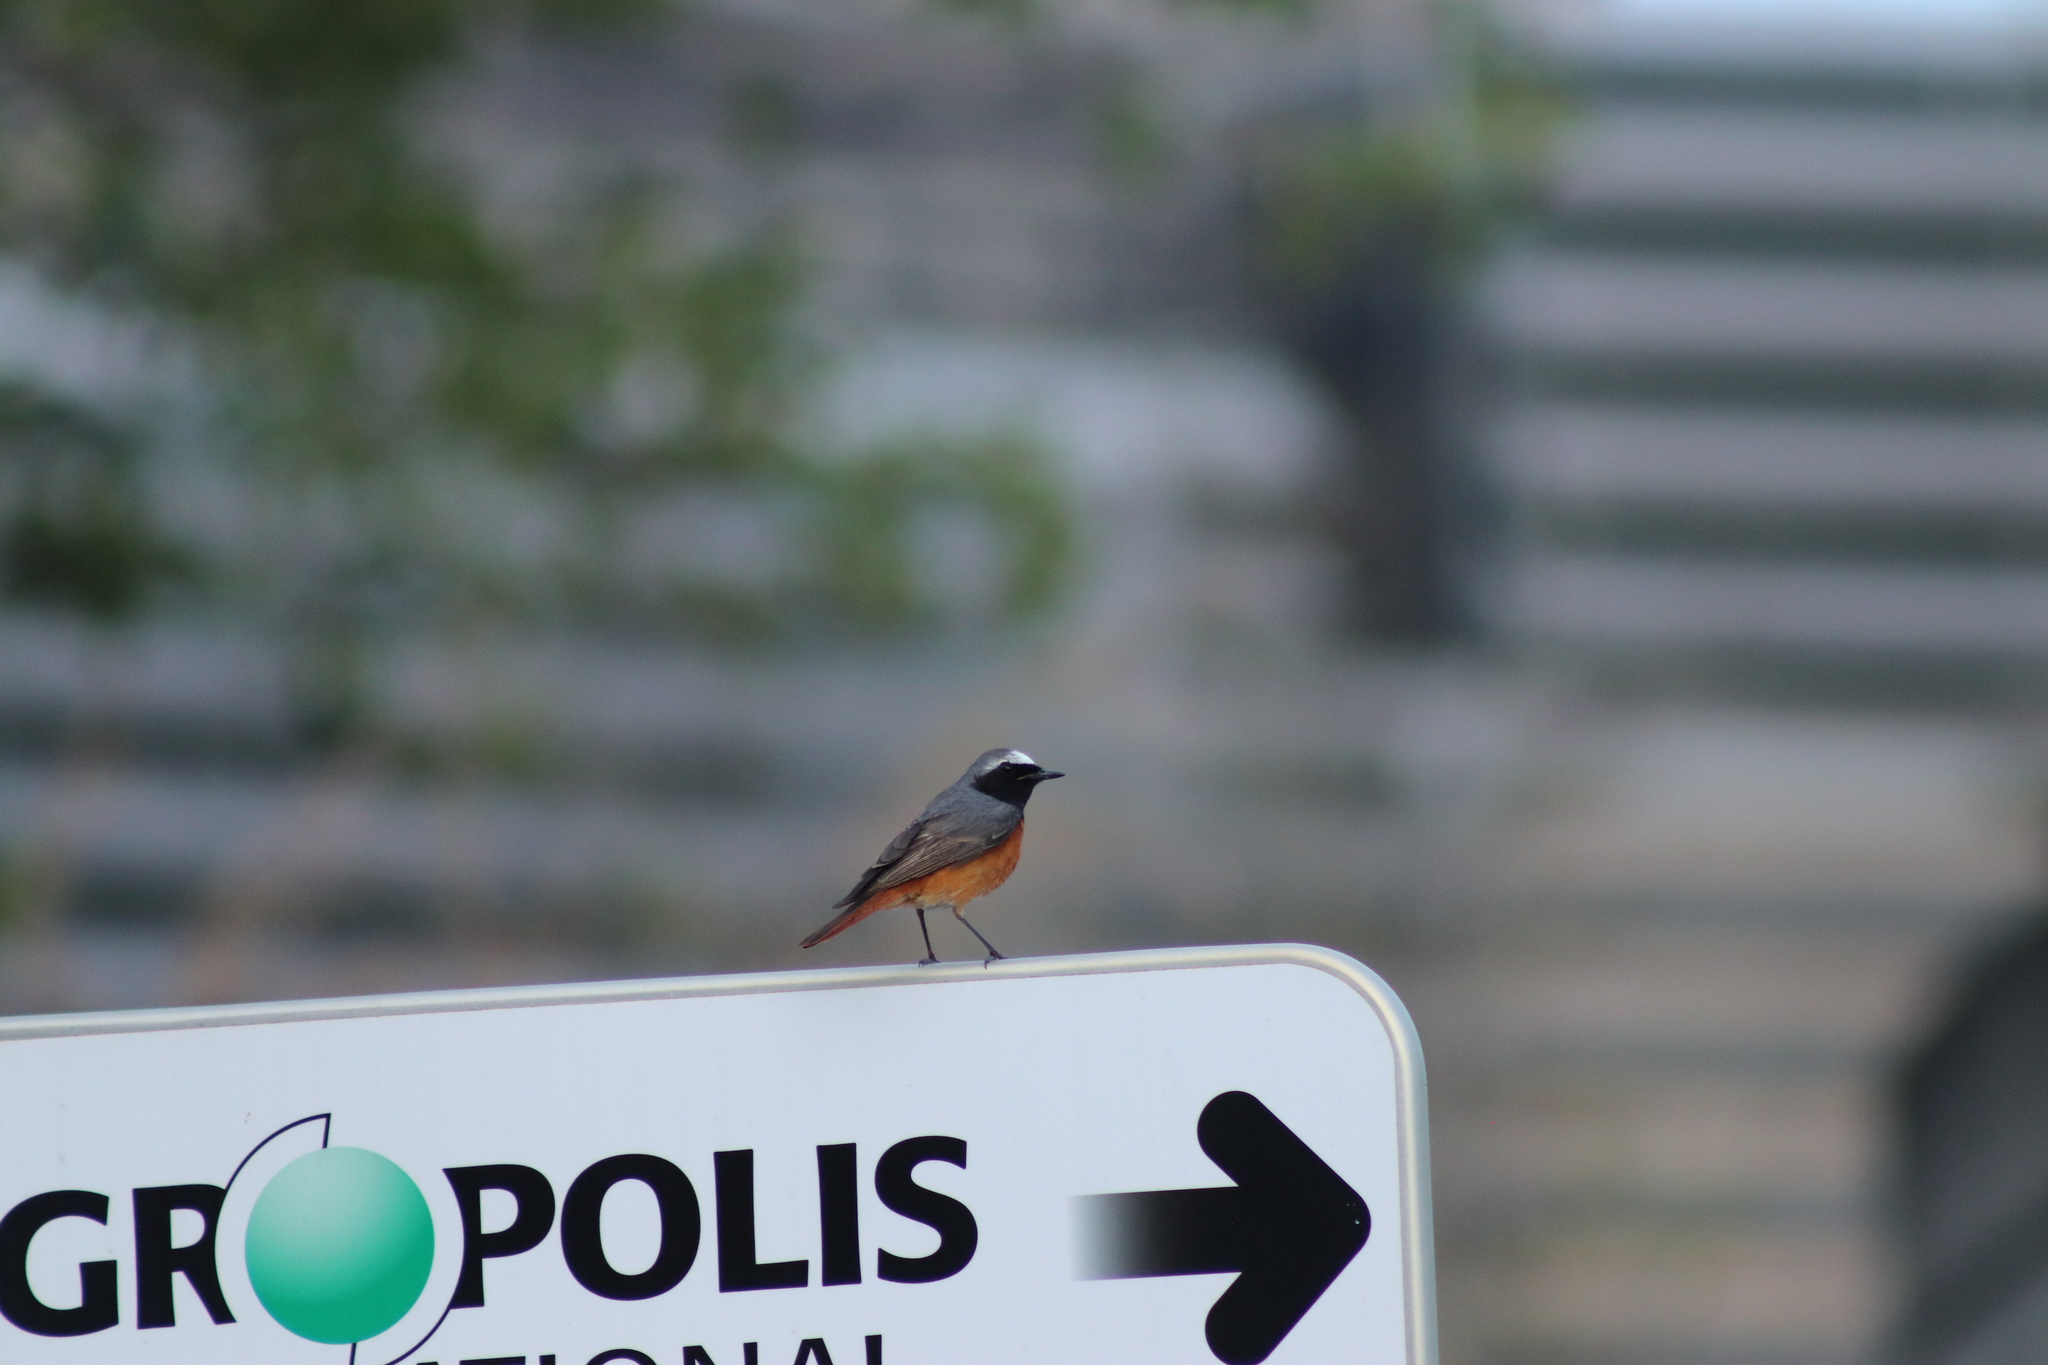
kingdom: Animalia
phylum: Chordata
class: Aves
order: Passeriformes
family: Muscicapidae
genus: Phoenicurus
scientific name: Phoenicurus phoenicurus
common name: Common redstart
